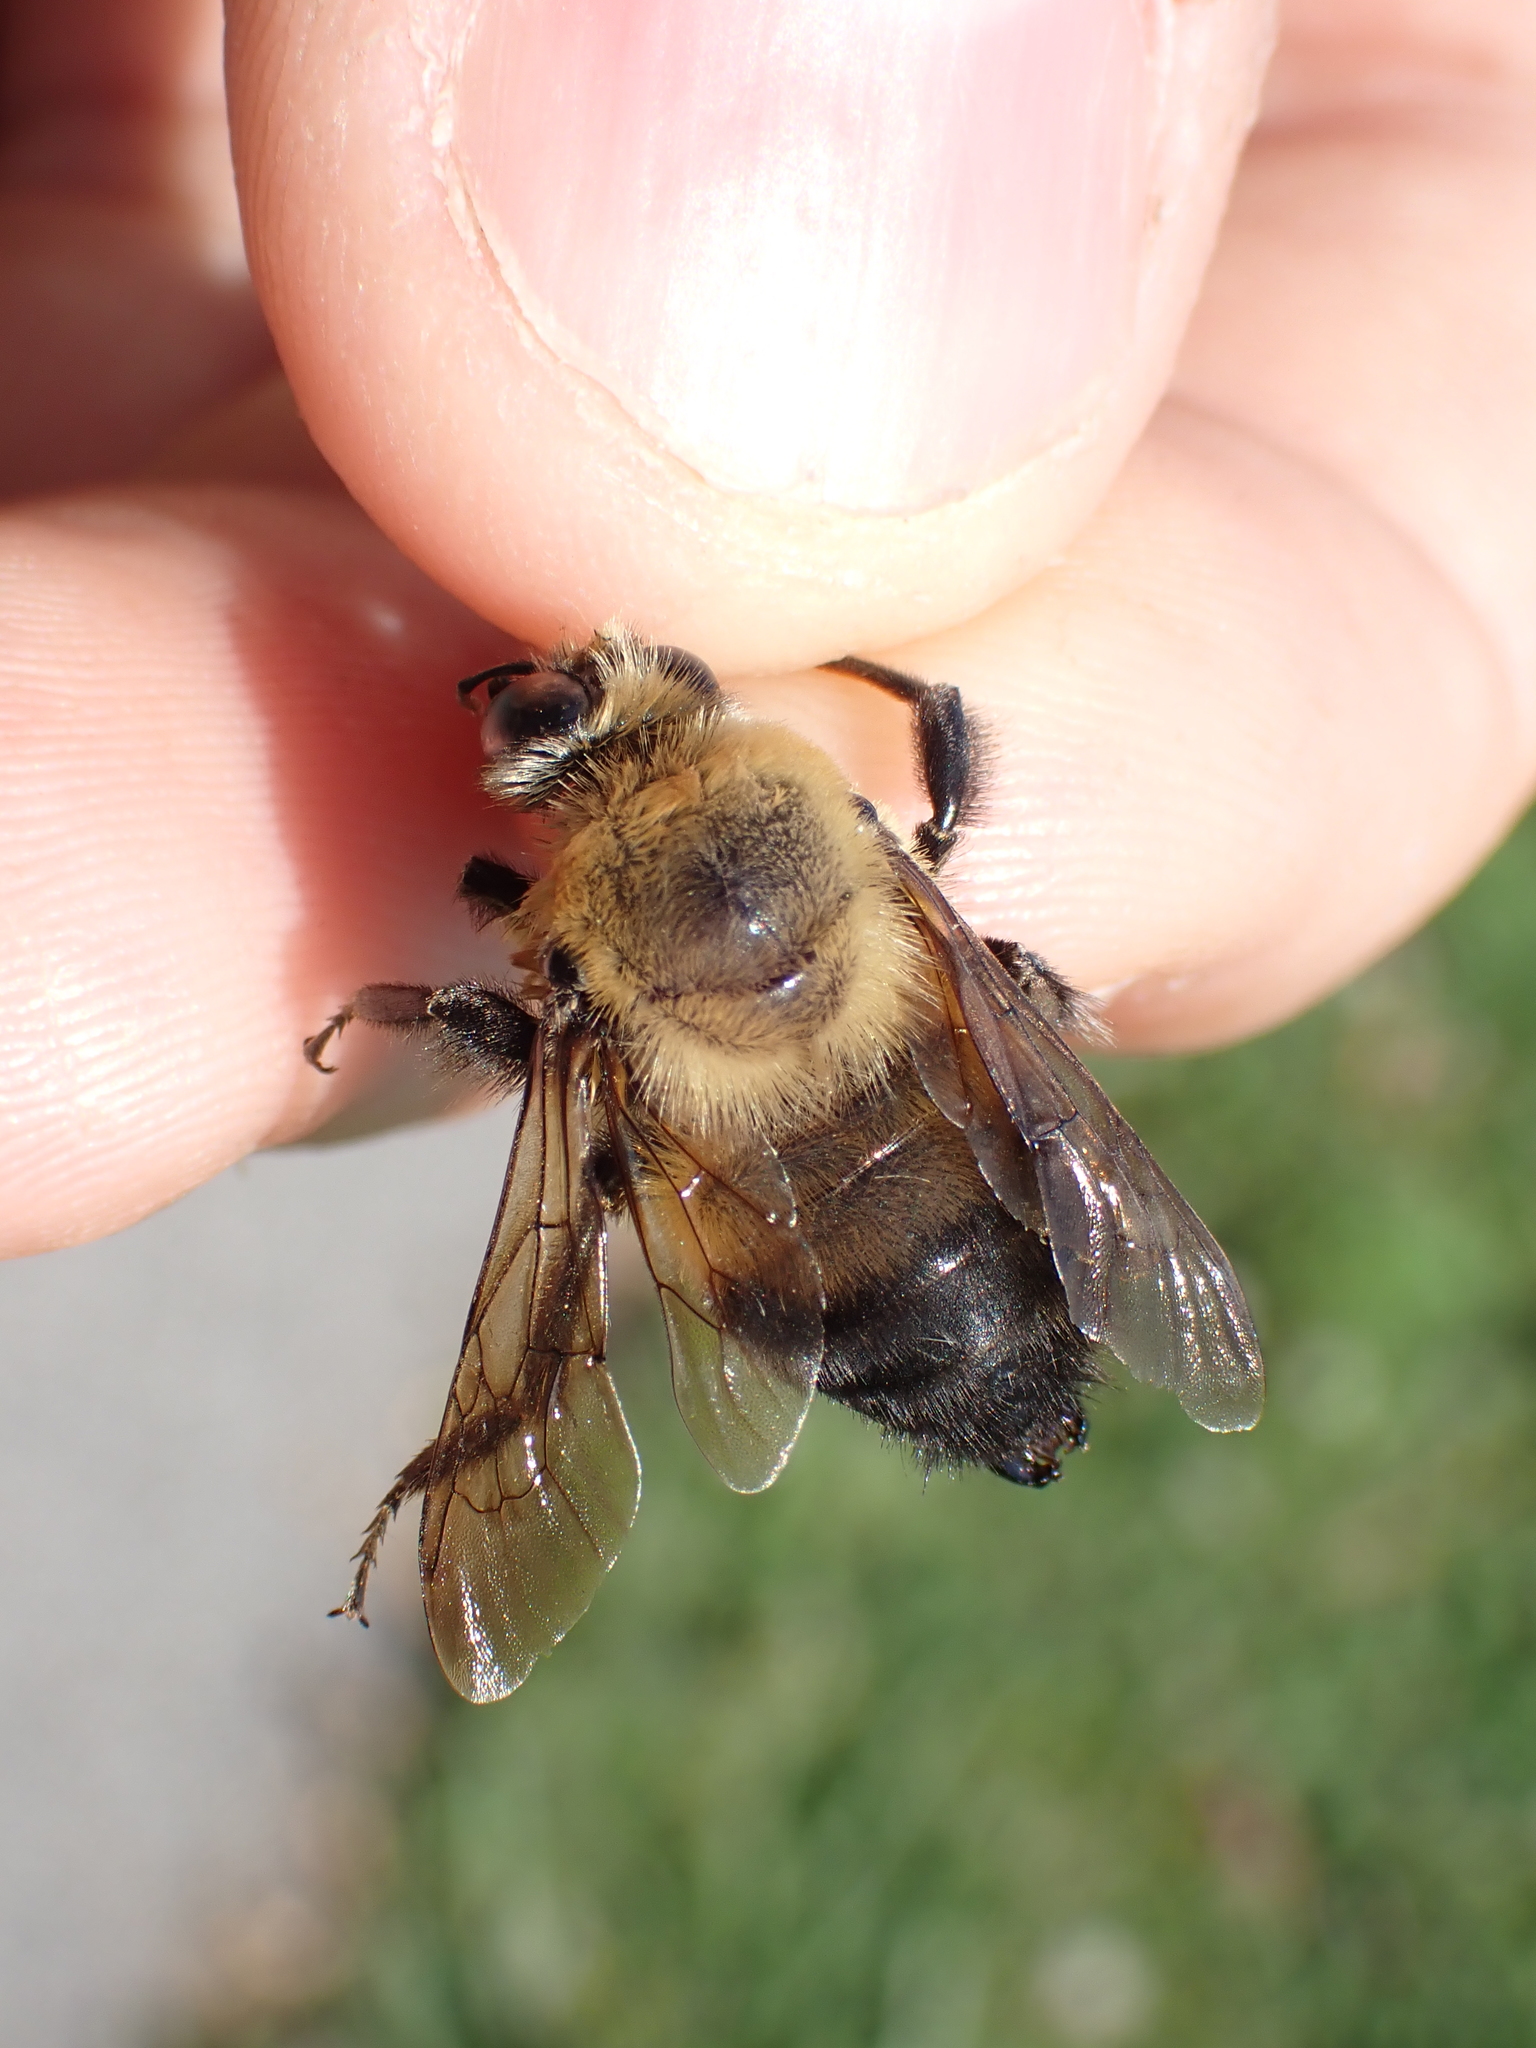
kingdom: Animalia
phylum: Arthropoda
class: Insecta
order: Hymenoptera
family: Apidae
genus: Bombus
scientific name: Bombus griseocollis
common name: Brown-belted bumble bee
